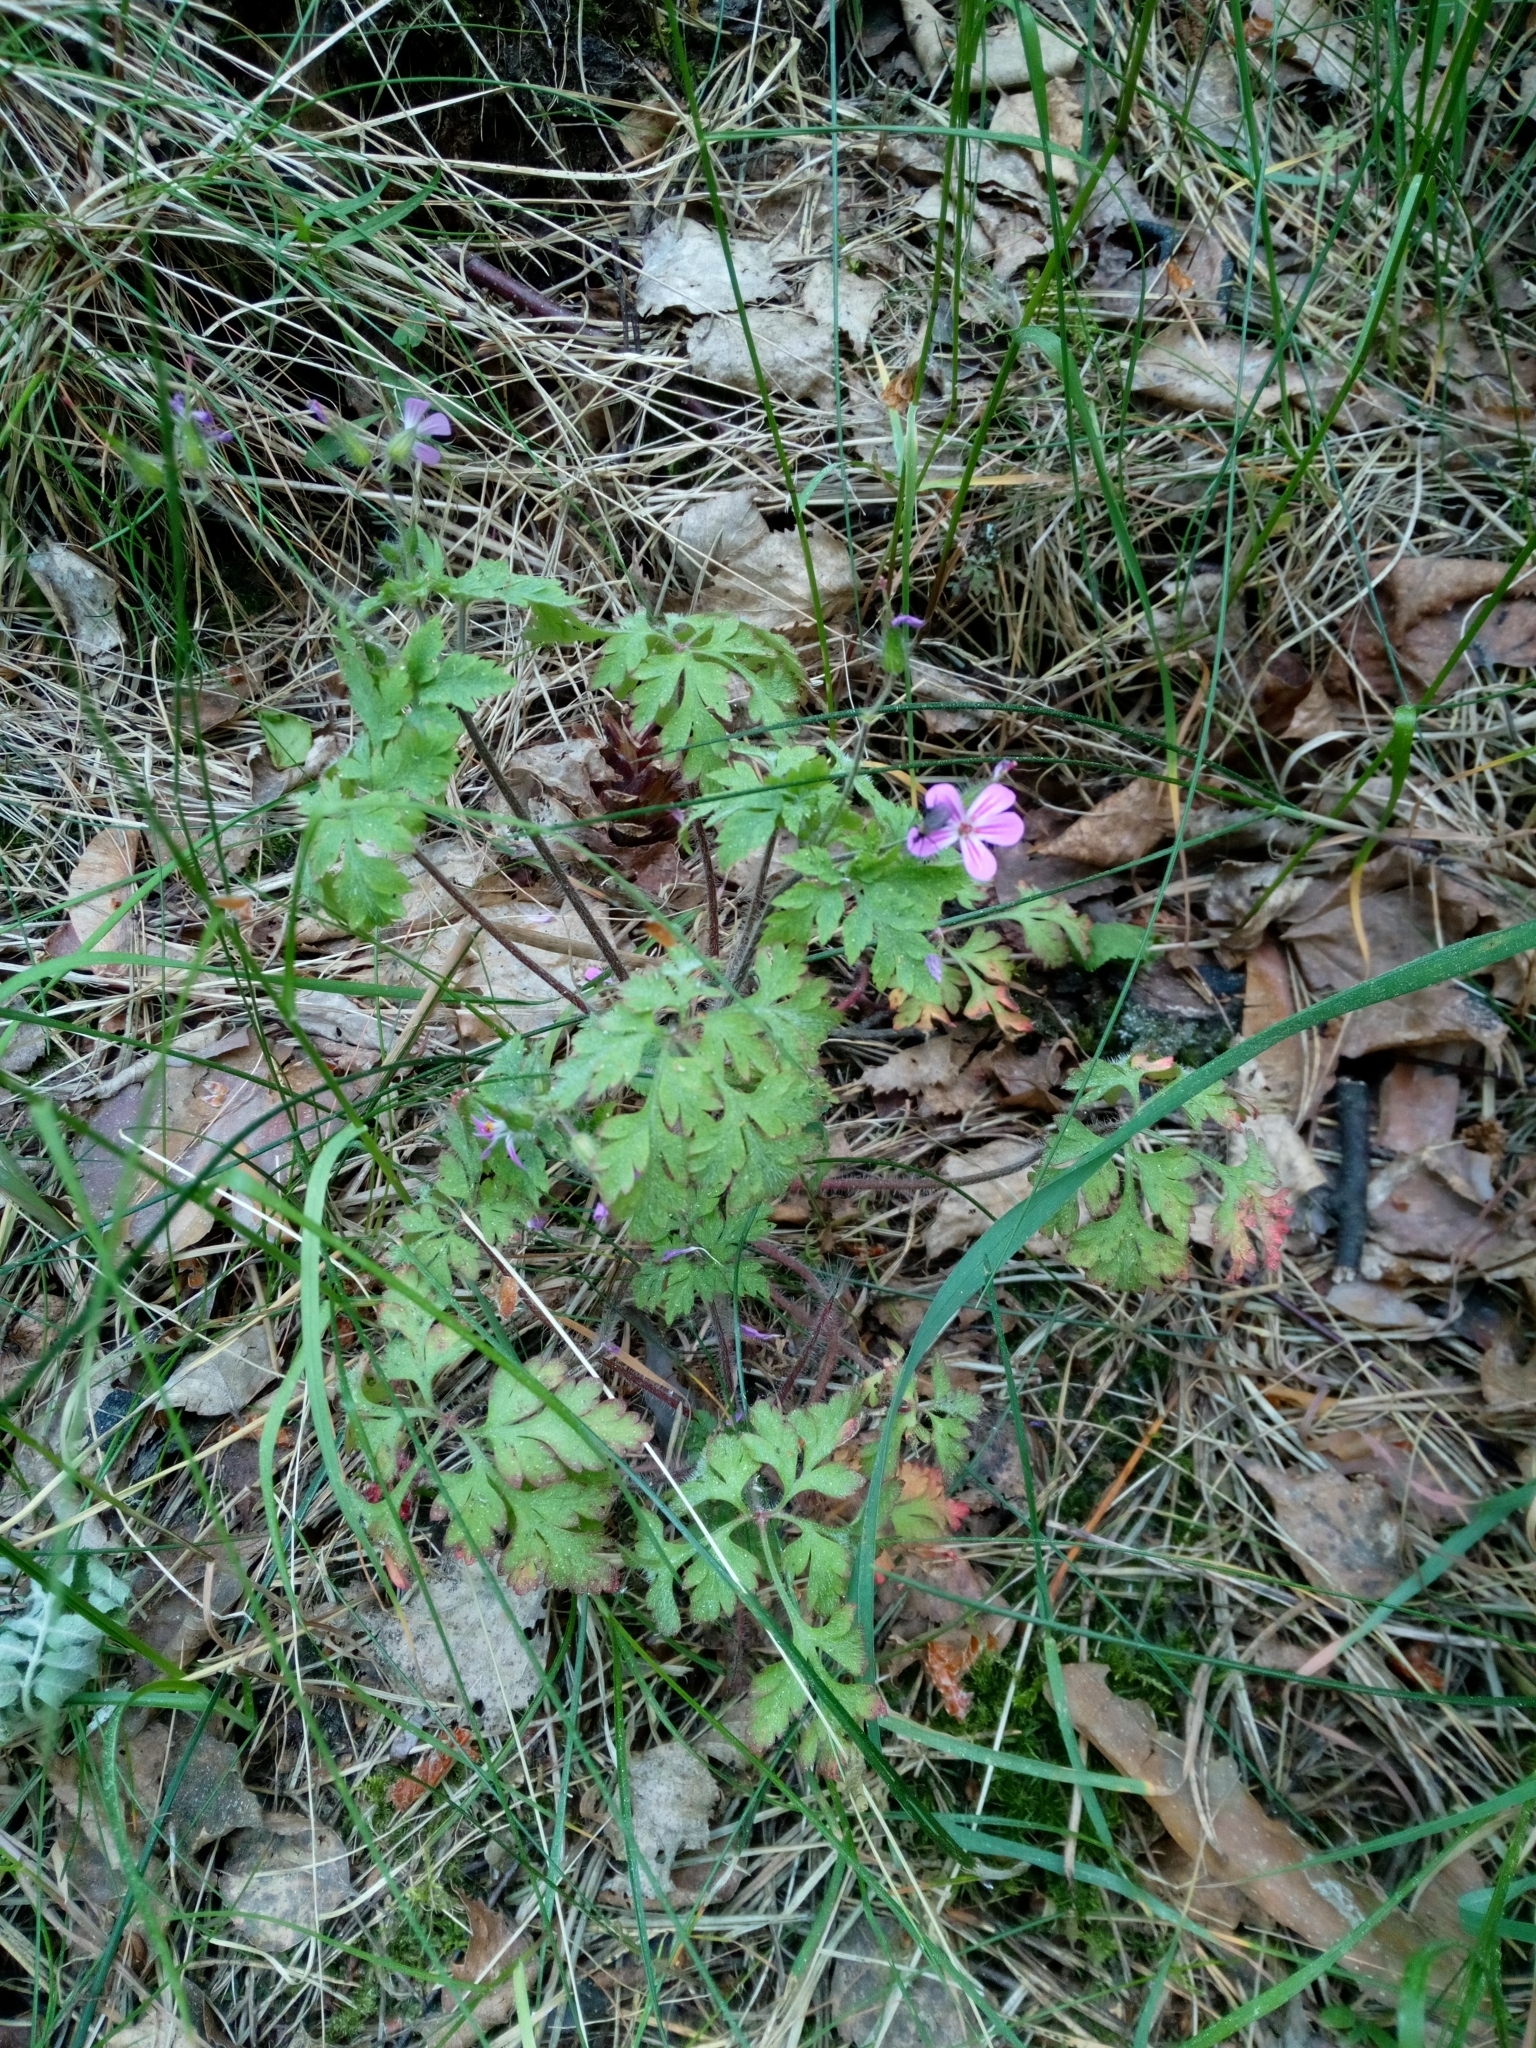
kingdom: Plantae
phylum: Tracheophyta
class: Magnoliopsida
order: Geraniales
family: Geraniaceae
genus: Geranium
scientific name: Geranium robertianum
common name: Herb-robert
